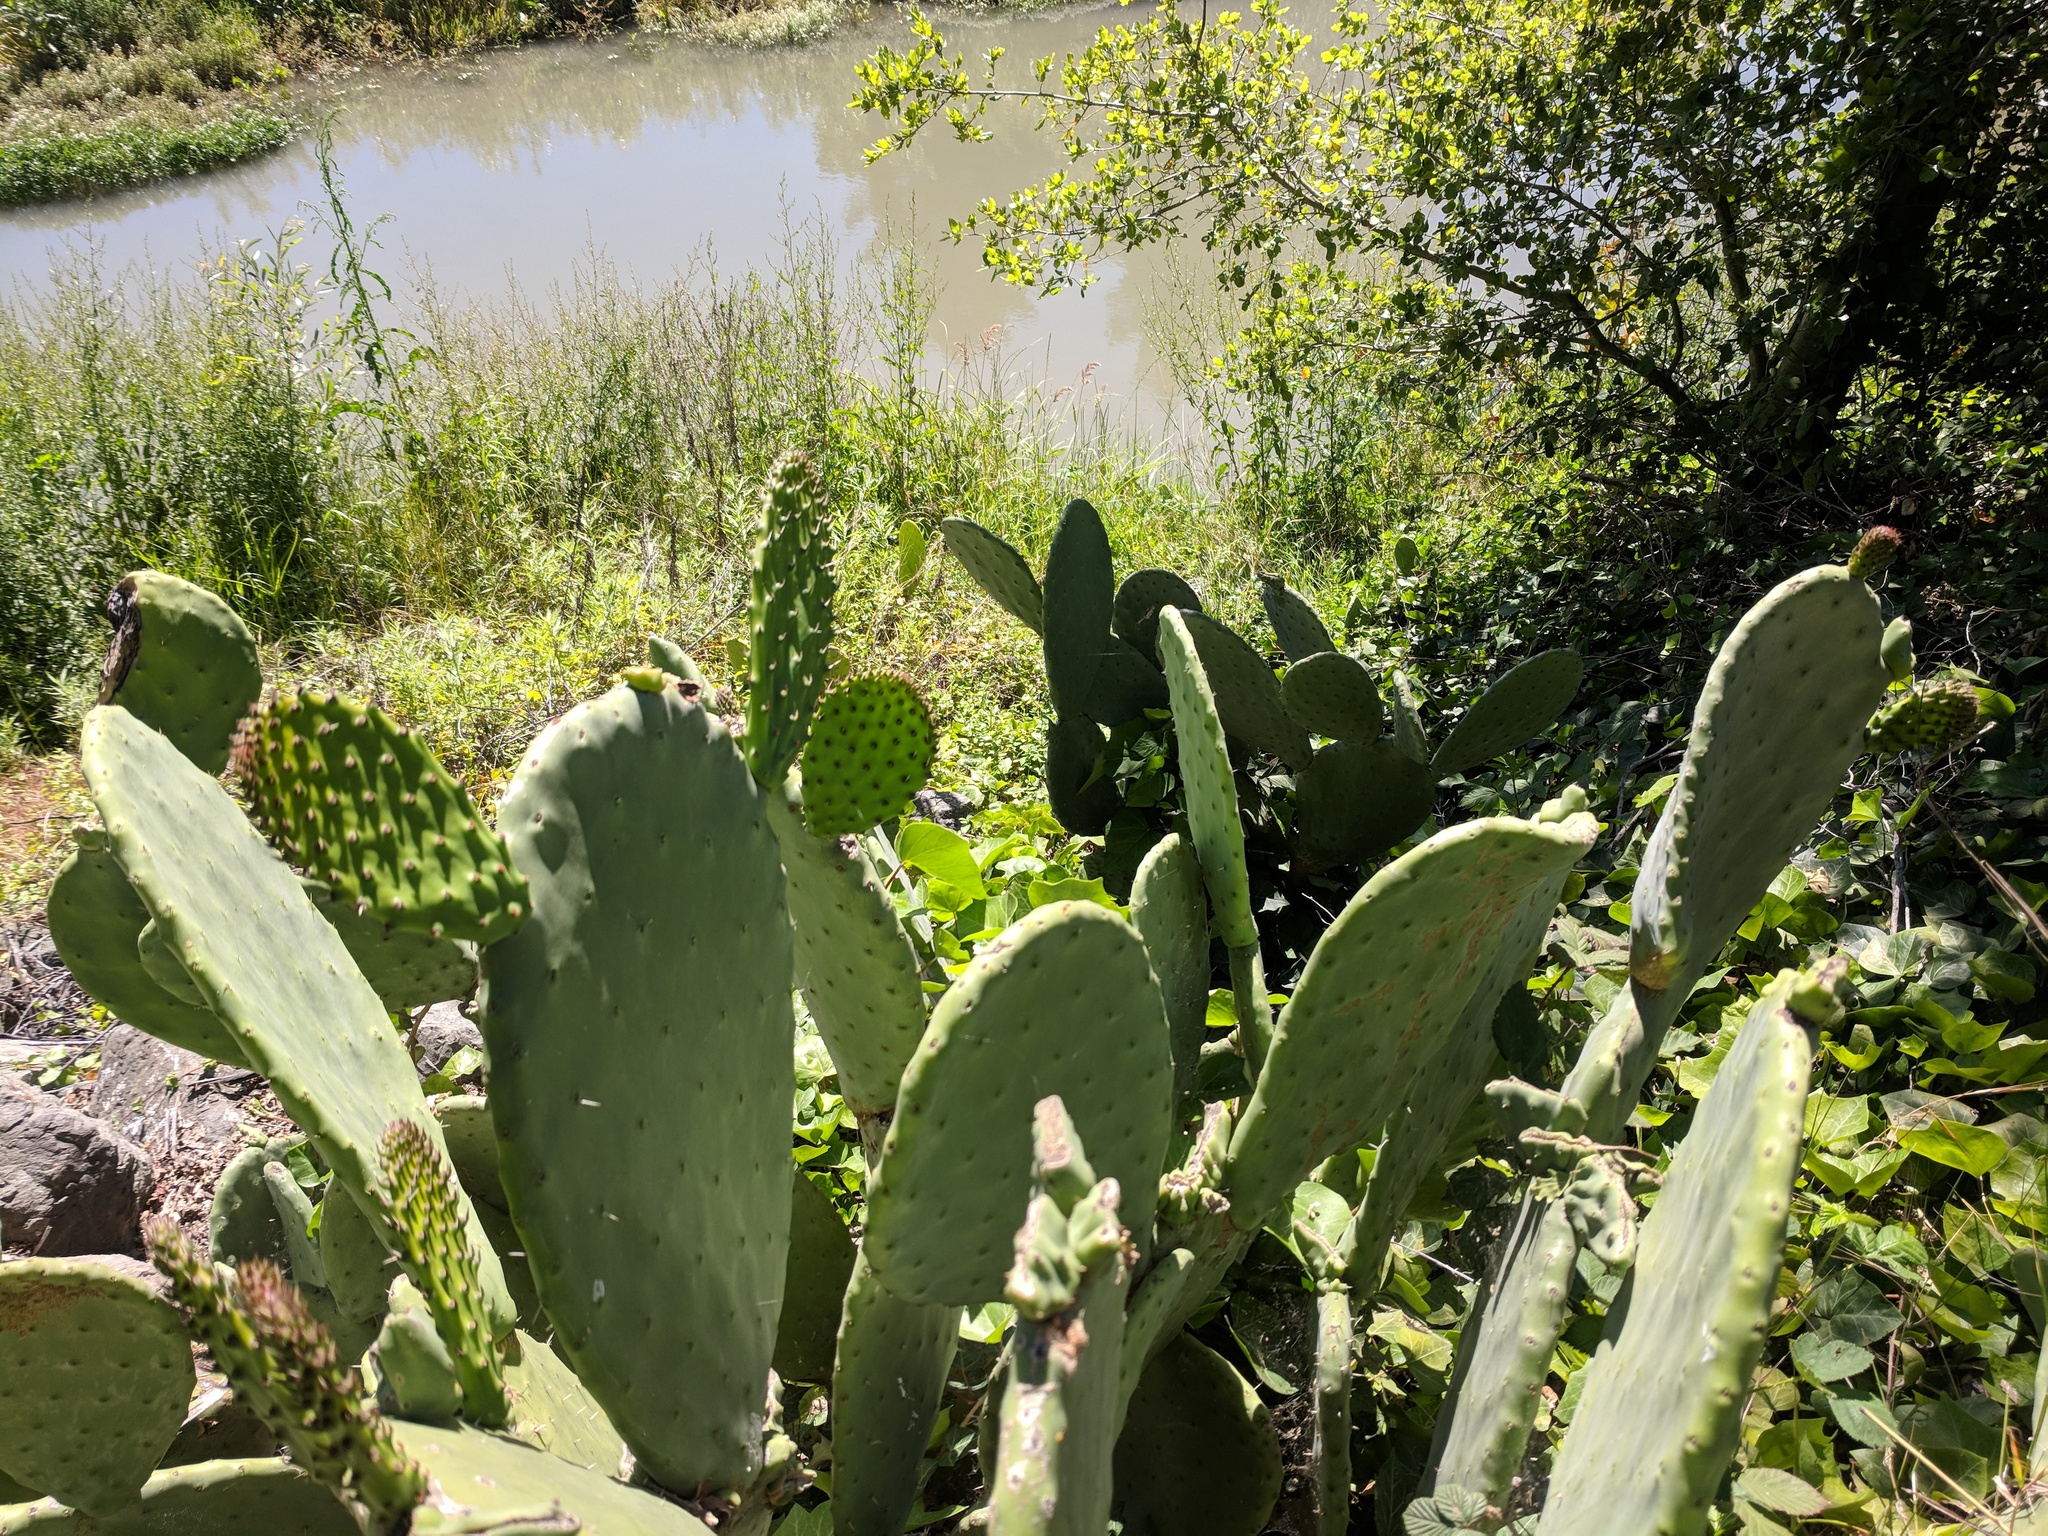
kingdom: Plantae
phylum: Tracheophyta
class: Magnoliopsida
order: Caryophyllales
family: Cactaceae
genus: Opuntia
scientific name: Opuntia ficus-indica
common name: Barbary fig
